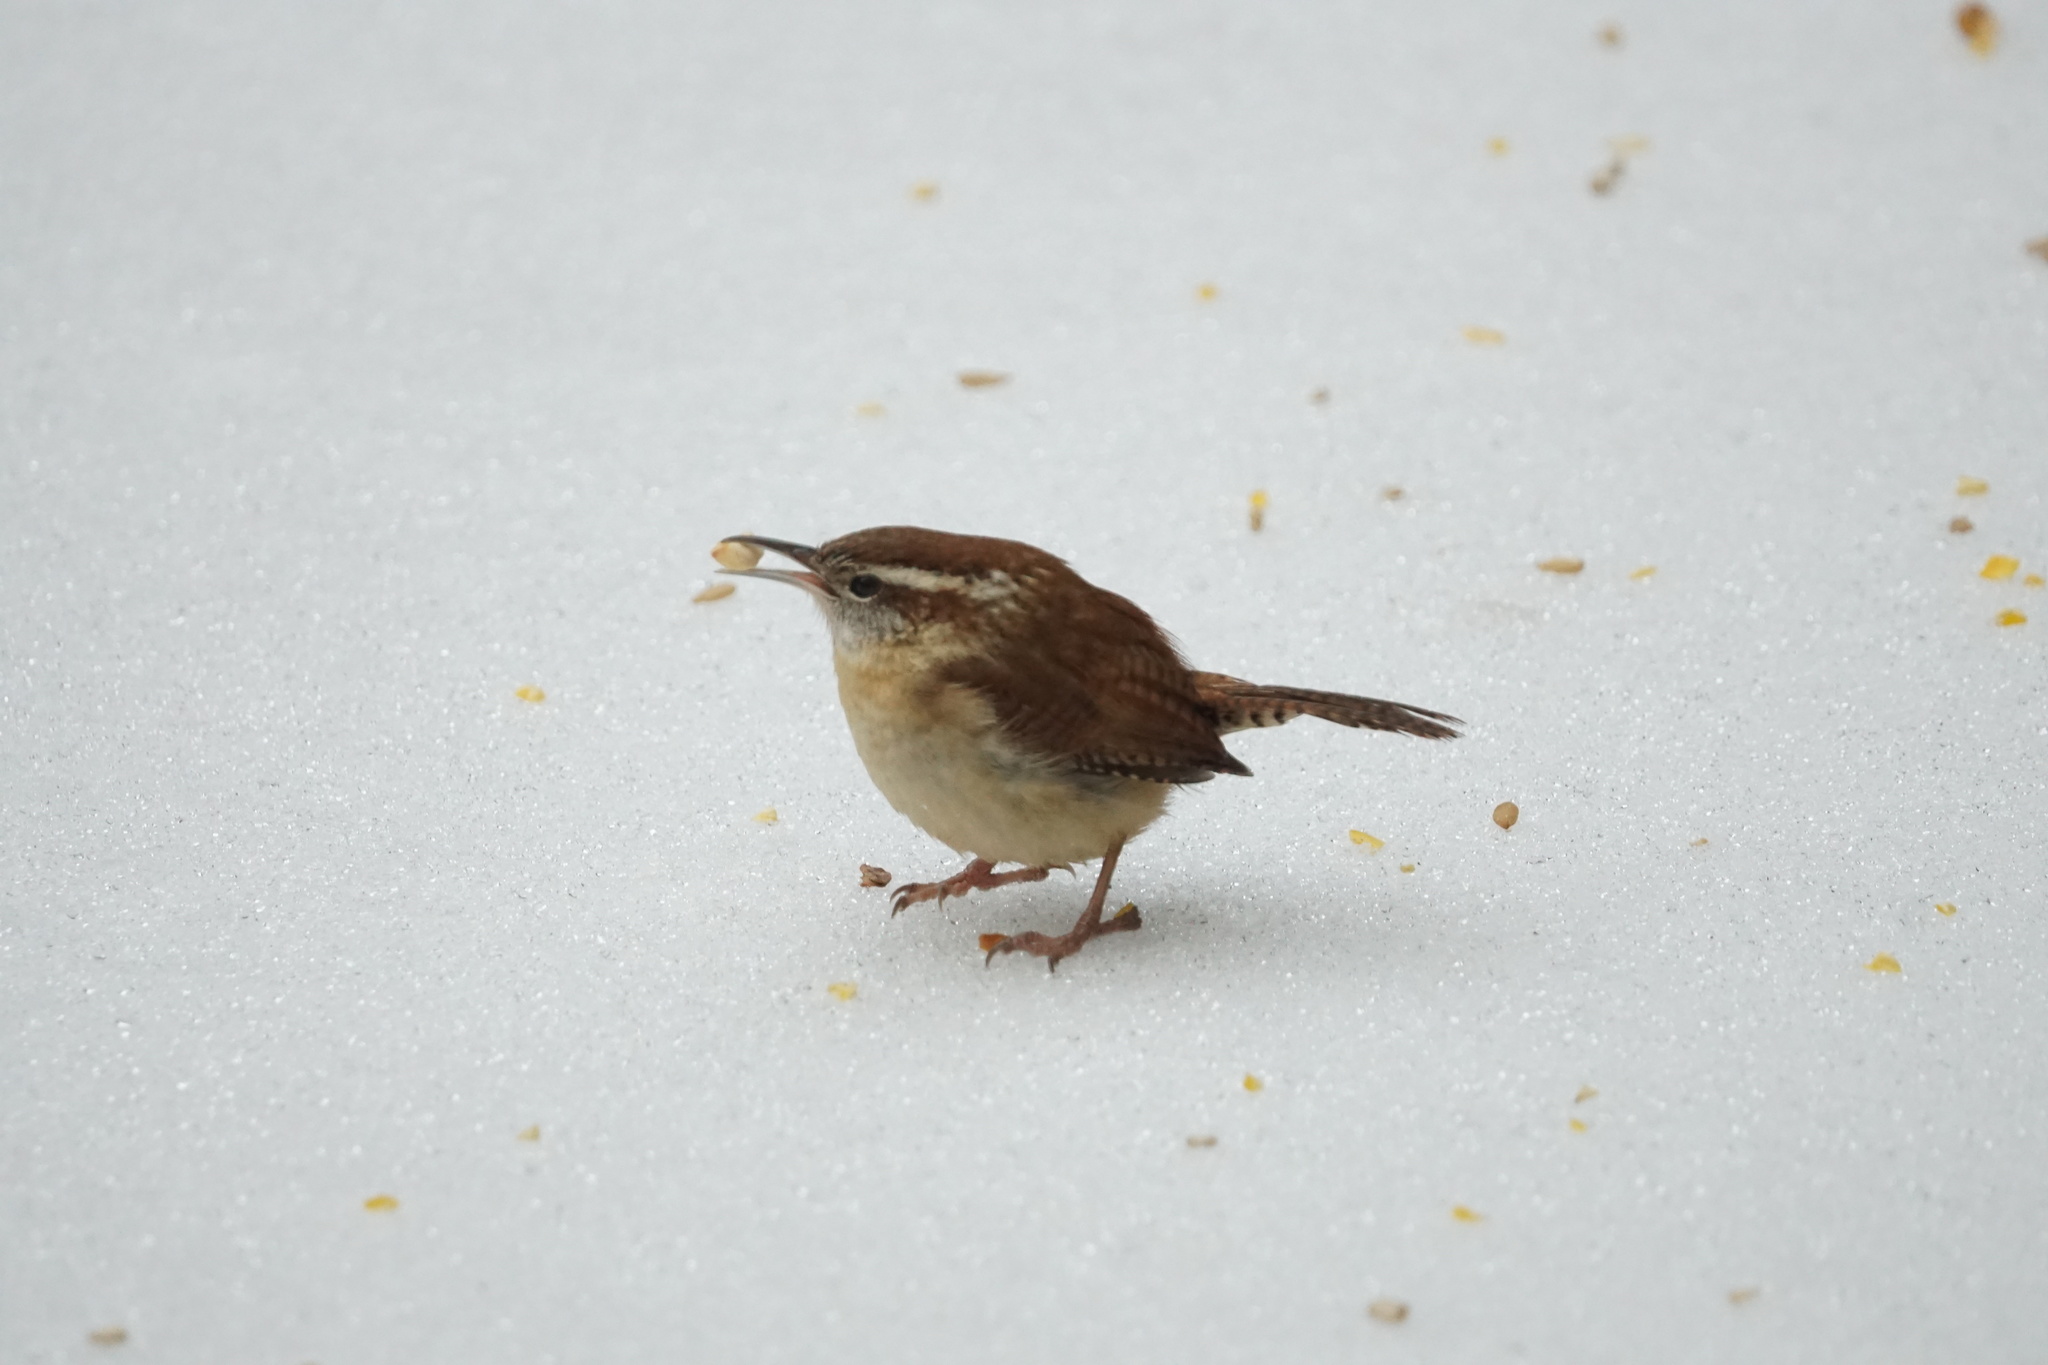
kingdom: Animalia
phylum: Chordata
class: Aves
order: Passeriformes
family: Troglodytidae
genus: Thryothorus
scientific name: Thryothorus ludovicianus
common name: Carolina wren
